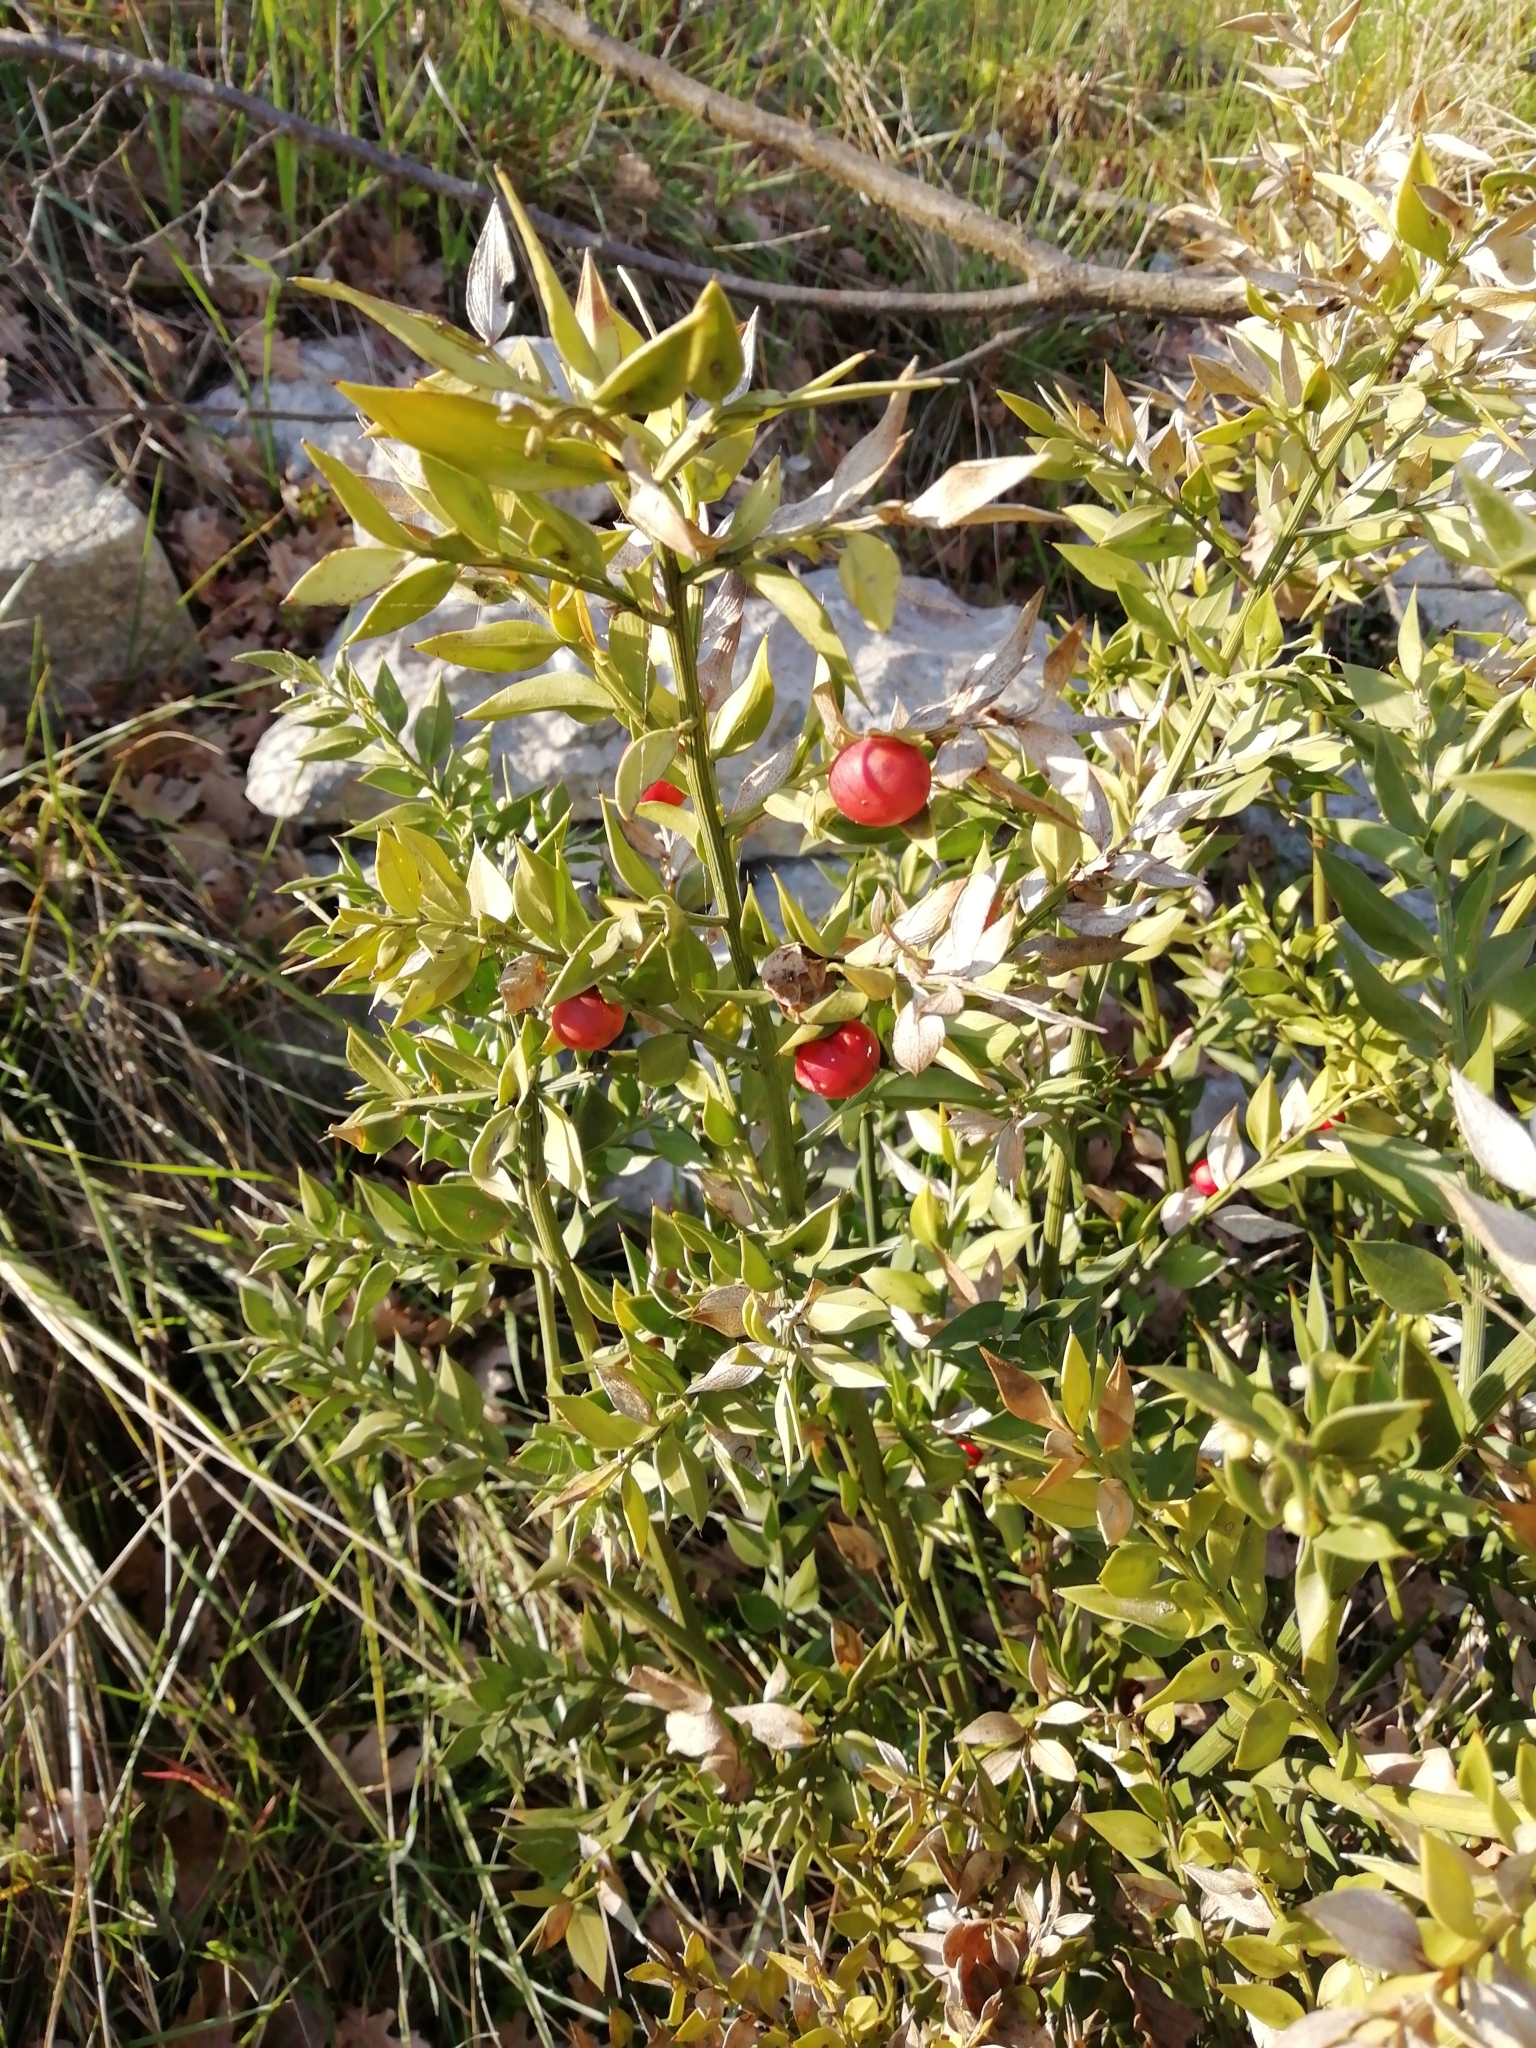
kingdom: Plantae
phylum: Tracheophyta
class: Liliopsida
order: Asparagales
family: Asparagaceae
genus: Ruscus
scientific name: Ruscus aculeatus
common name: Butcher's-broom
